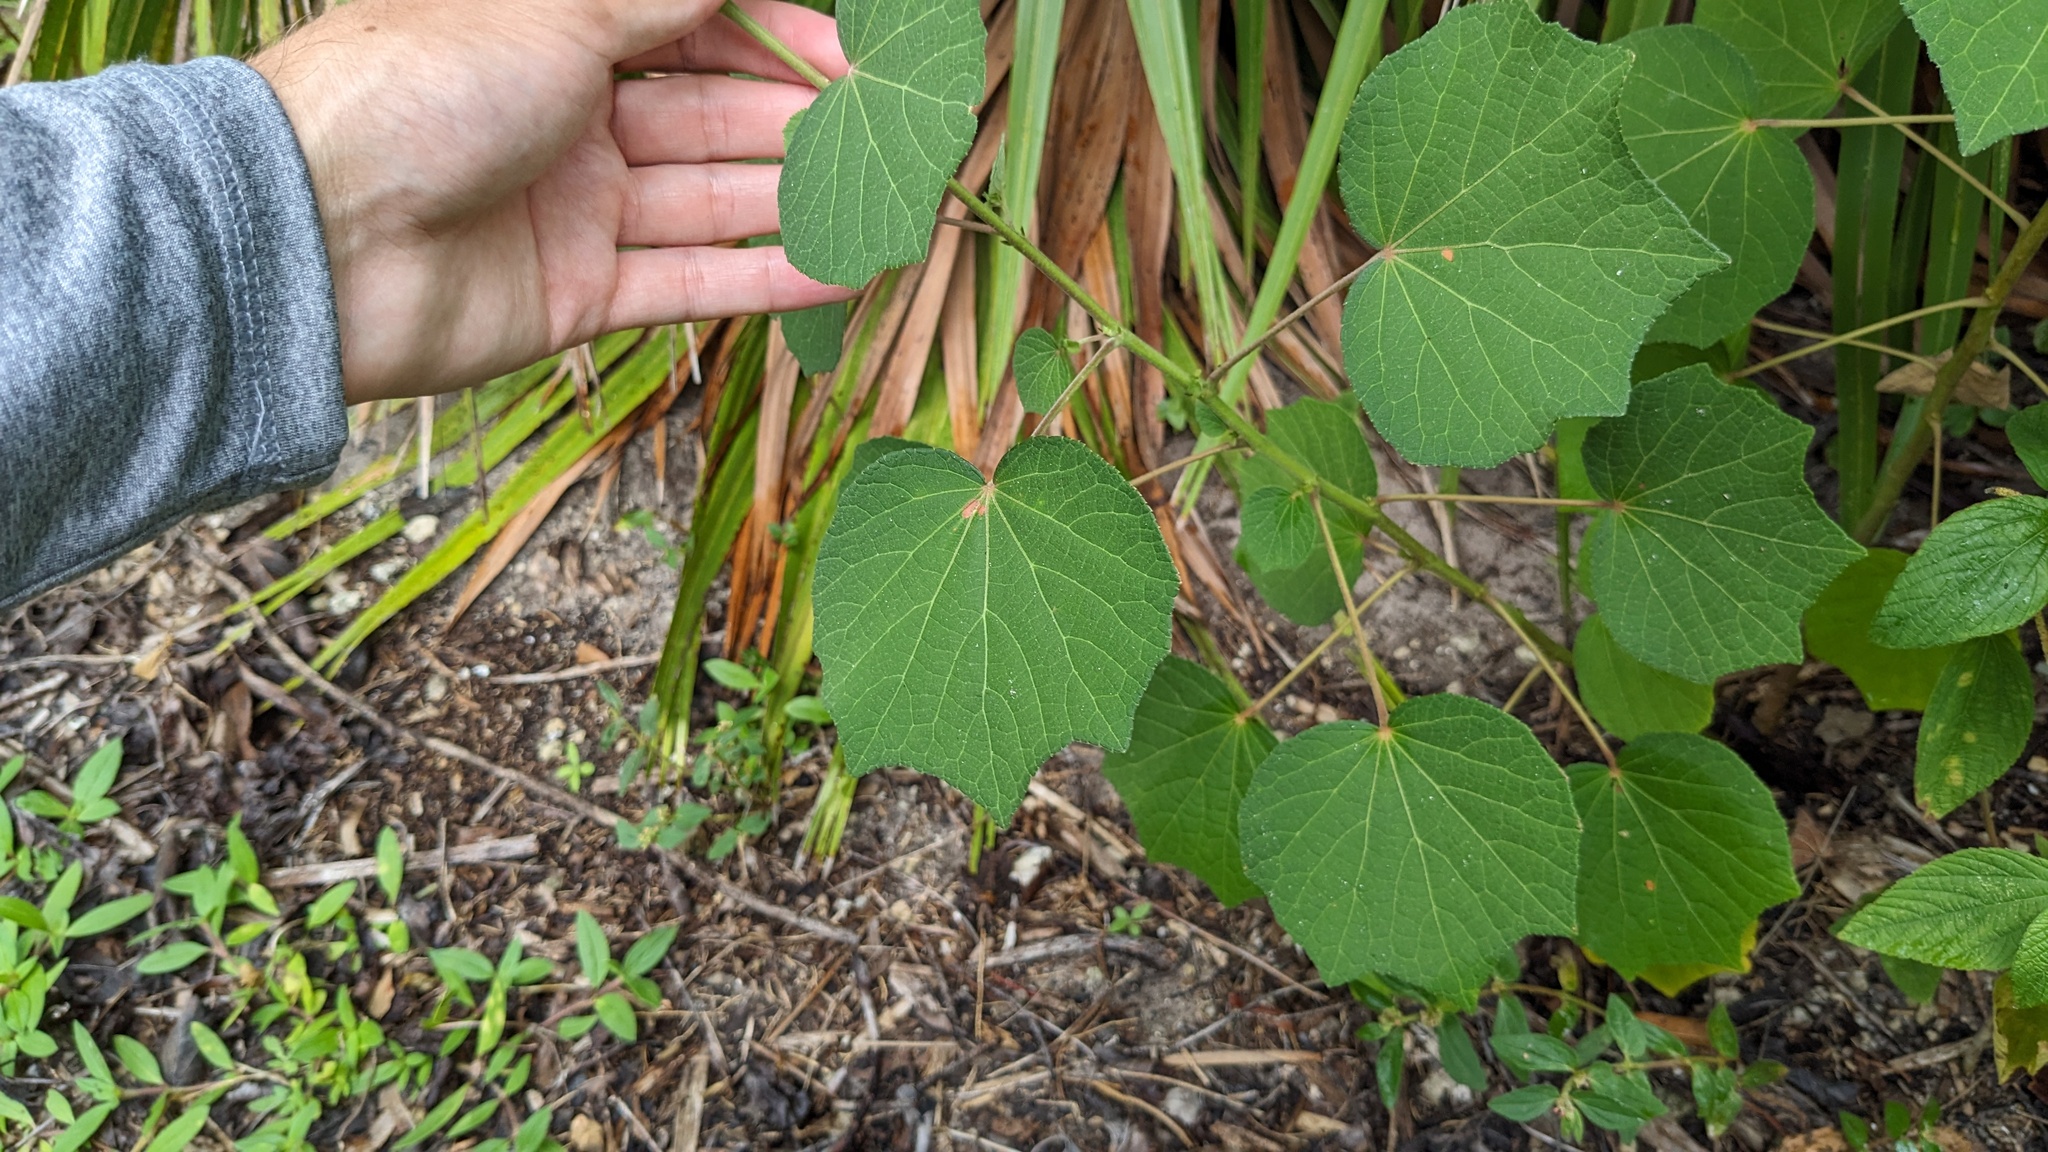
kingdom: Plantae
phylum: Tracheophyta
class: Magnoliopsida
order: Malvales
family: Malvaceae
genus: Urena
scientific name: Urena lobata
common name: Caesarweed
